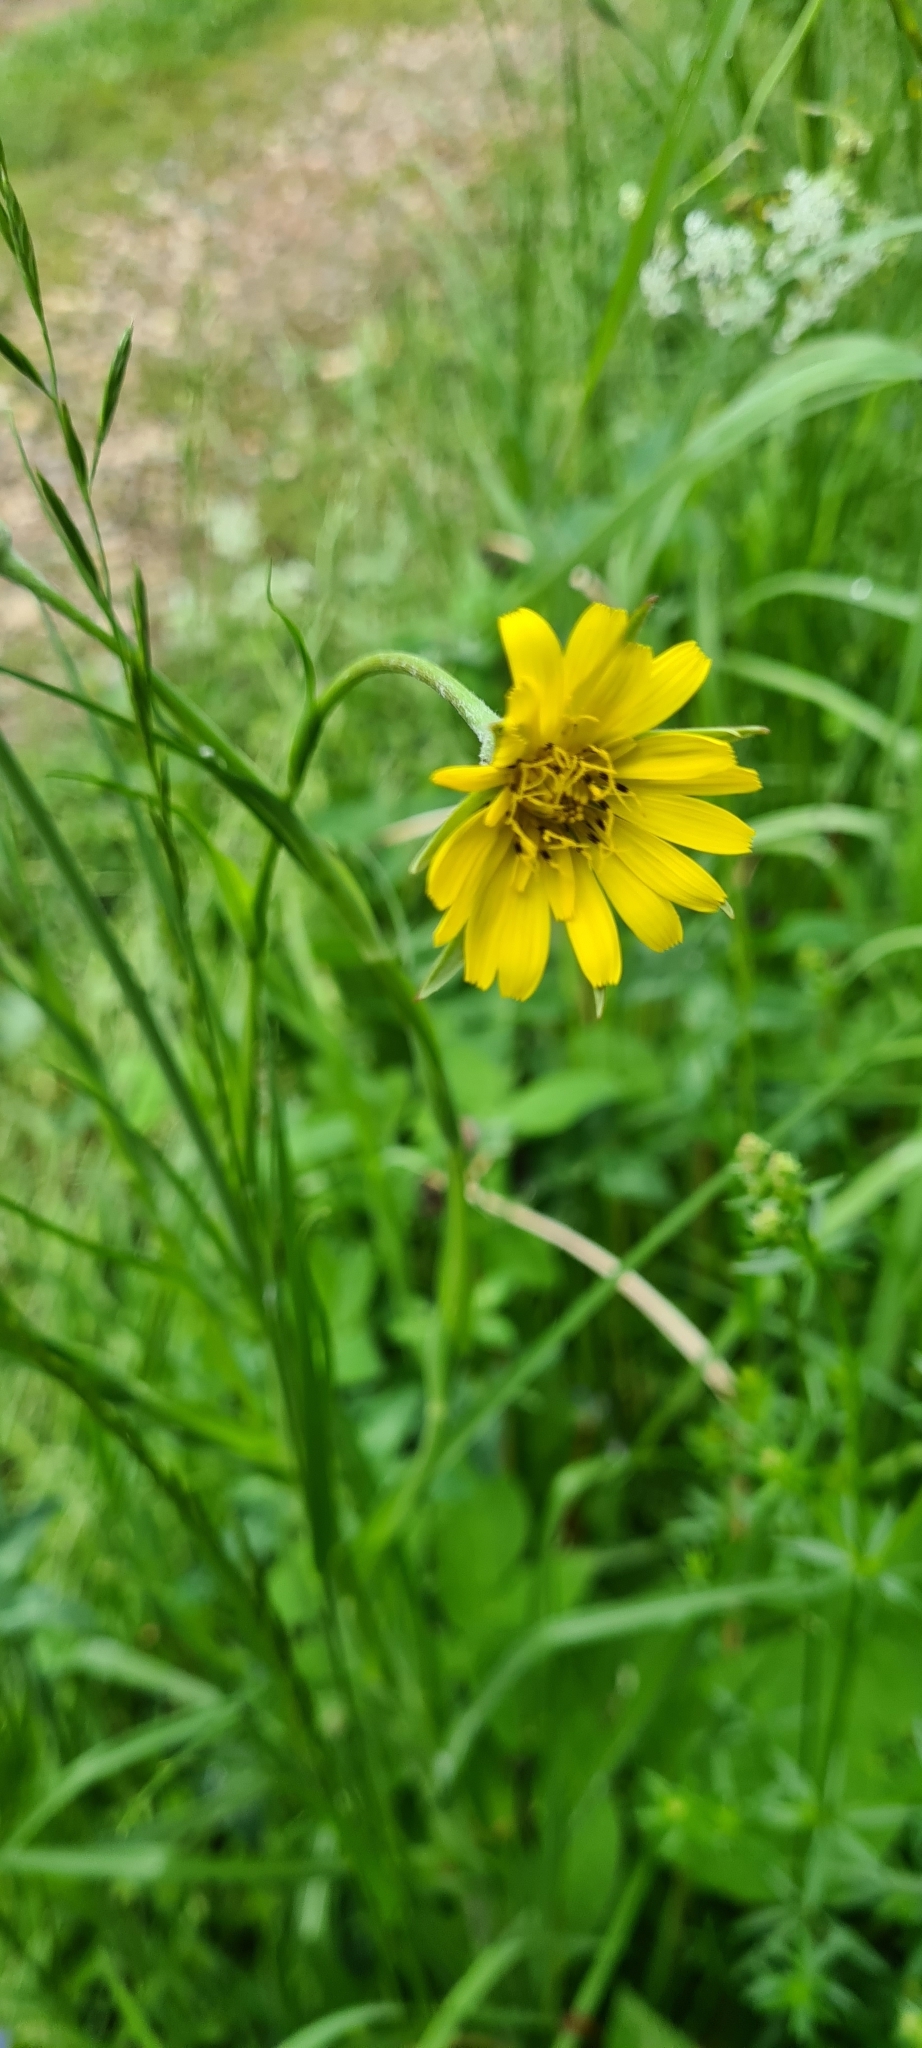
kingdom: Plantae
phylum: Tracheophyta
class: Magnoliopsida
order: Asterales
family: Asteraceae
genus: Tragopogon
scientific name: Tragopogon pratensis
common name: Goat's-beard
